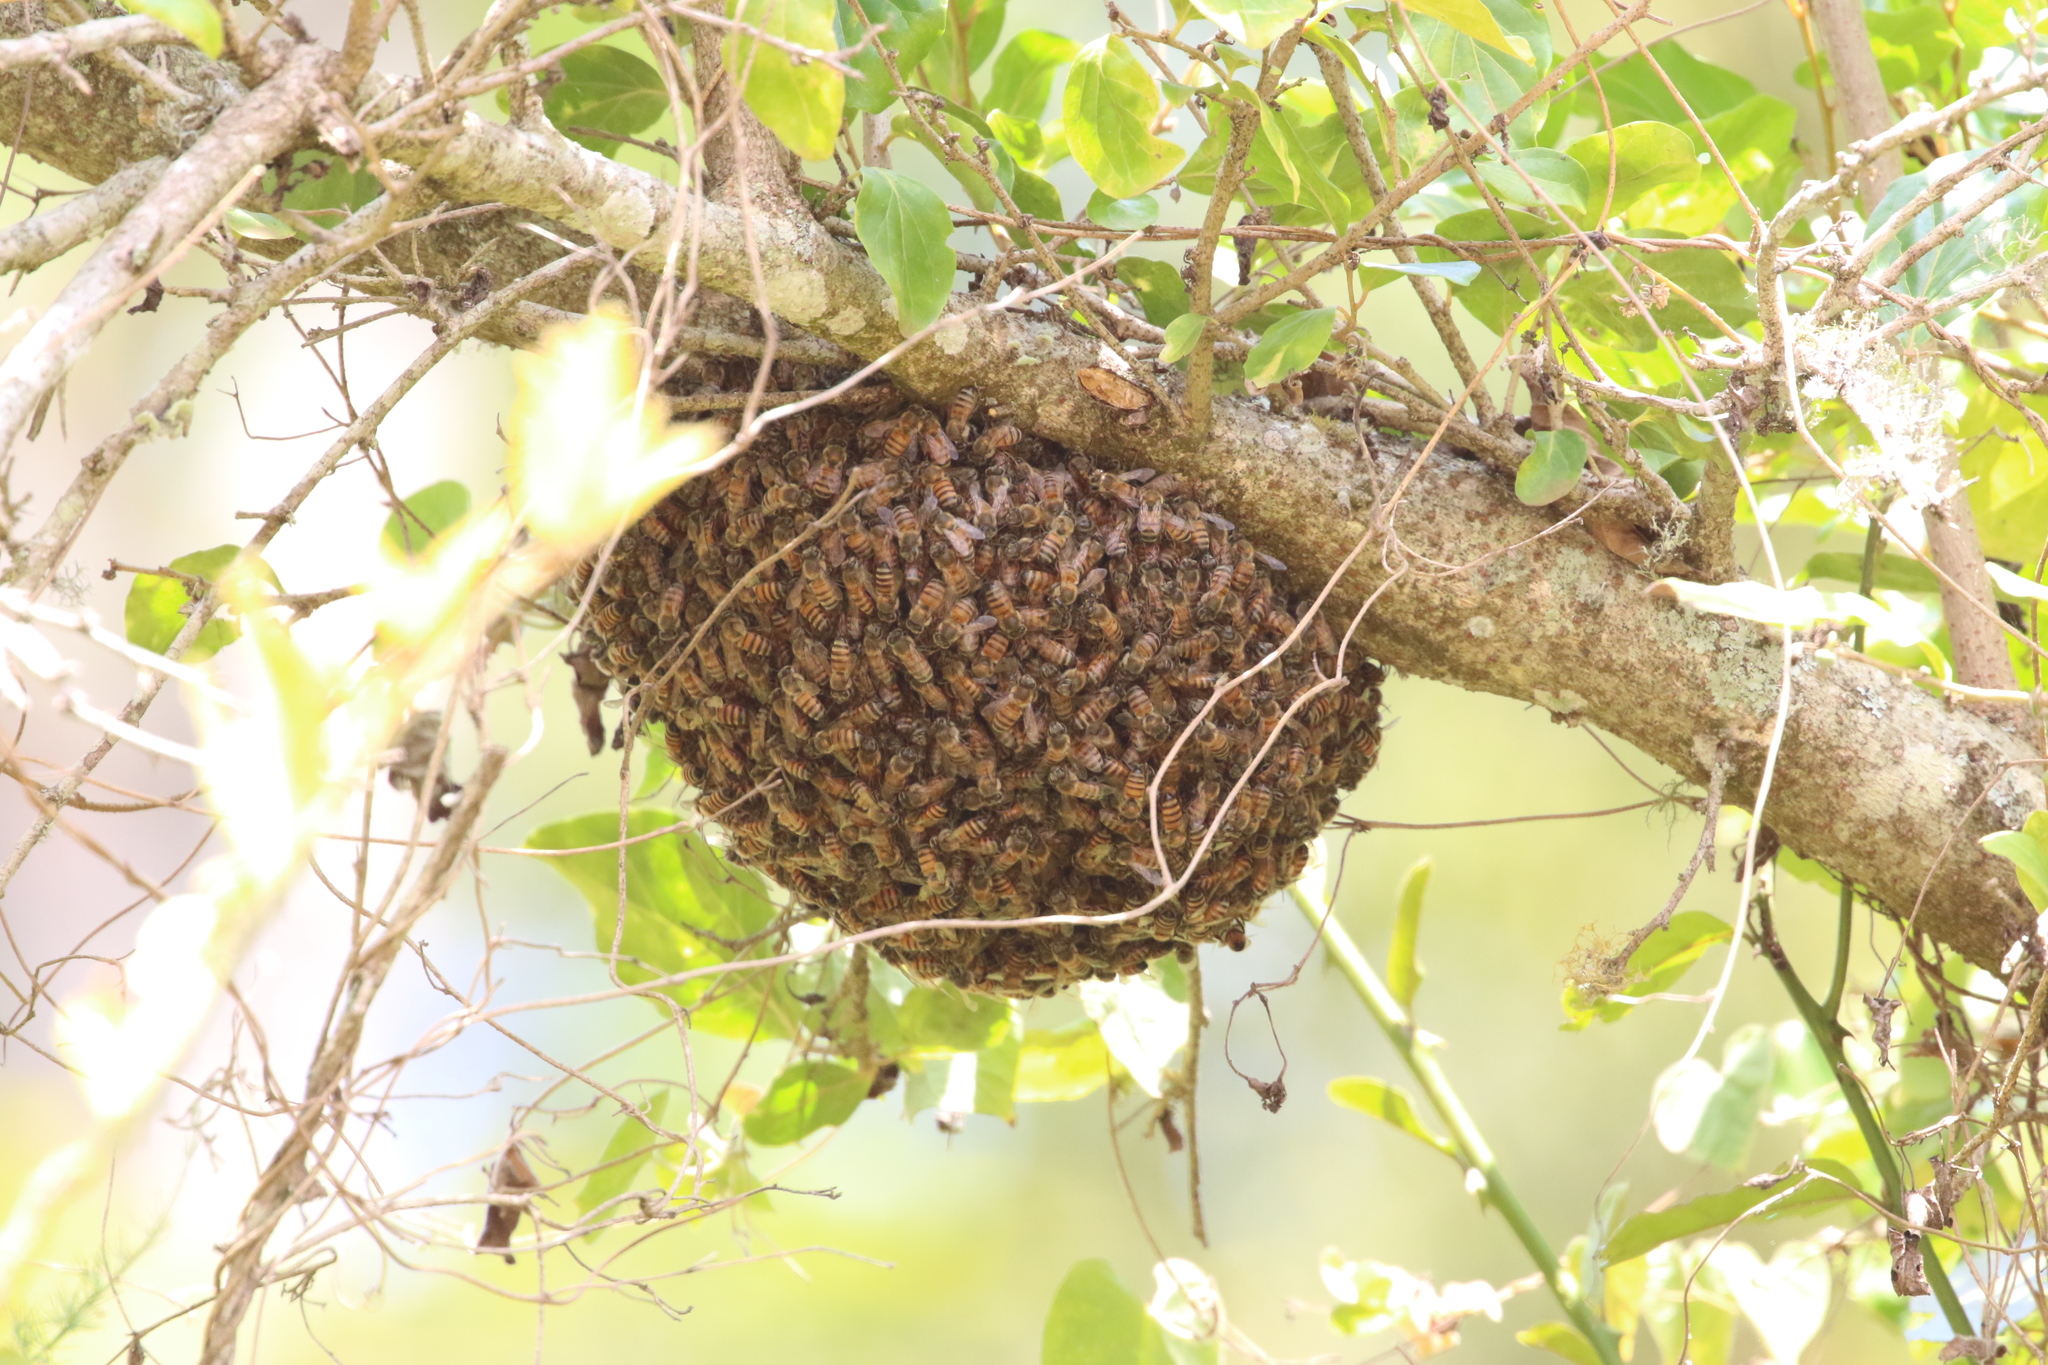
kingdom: Animalia
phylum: Arthropoda
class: Insecta
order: Hymenoptera
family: Apidae
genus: Apis
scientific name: Apis mellifera
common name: Honey bee
